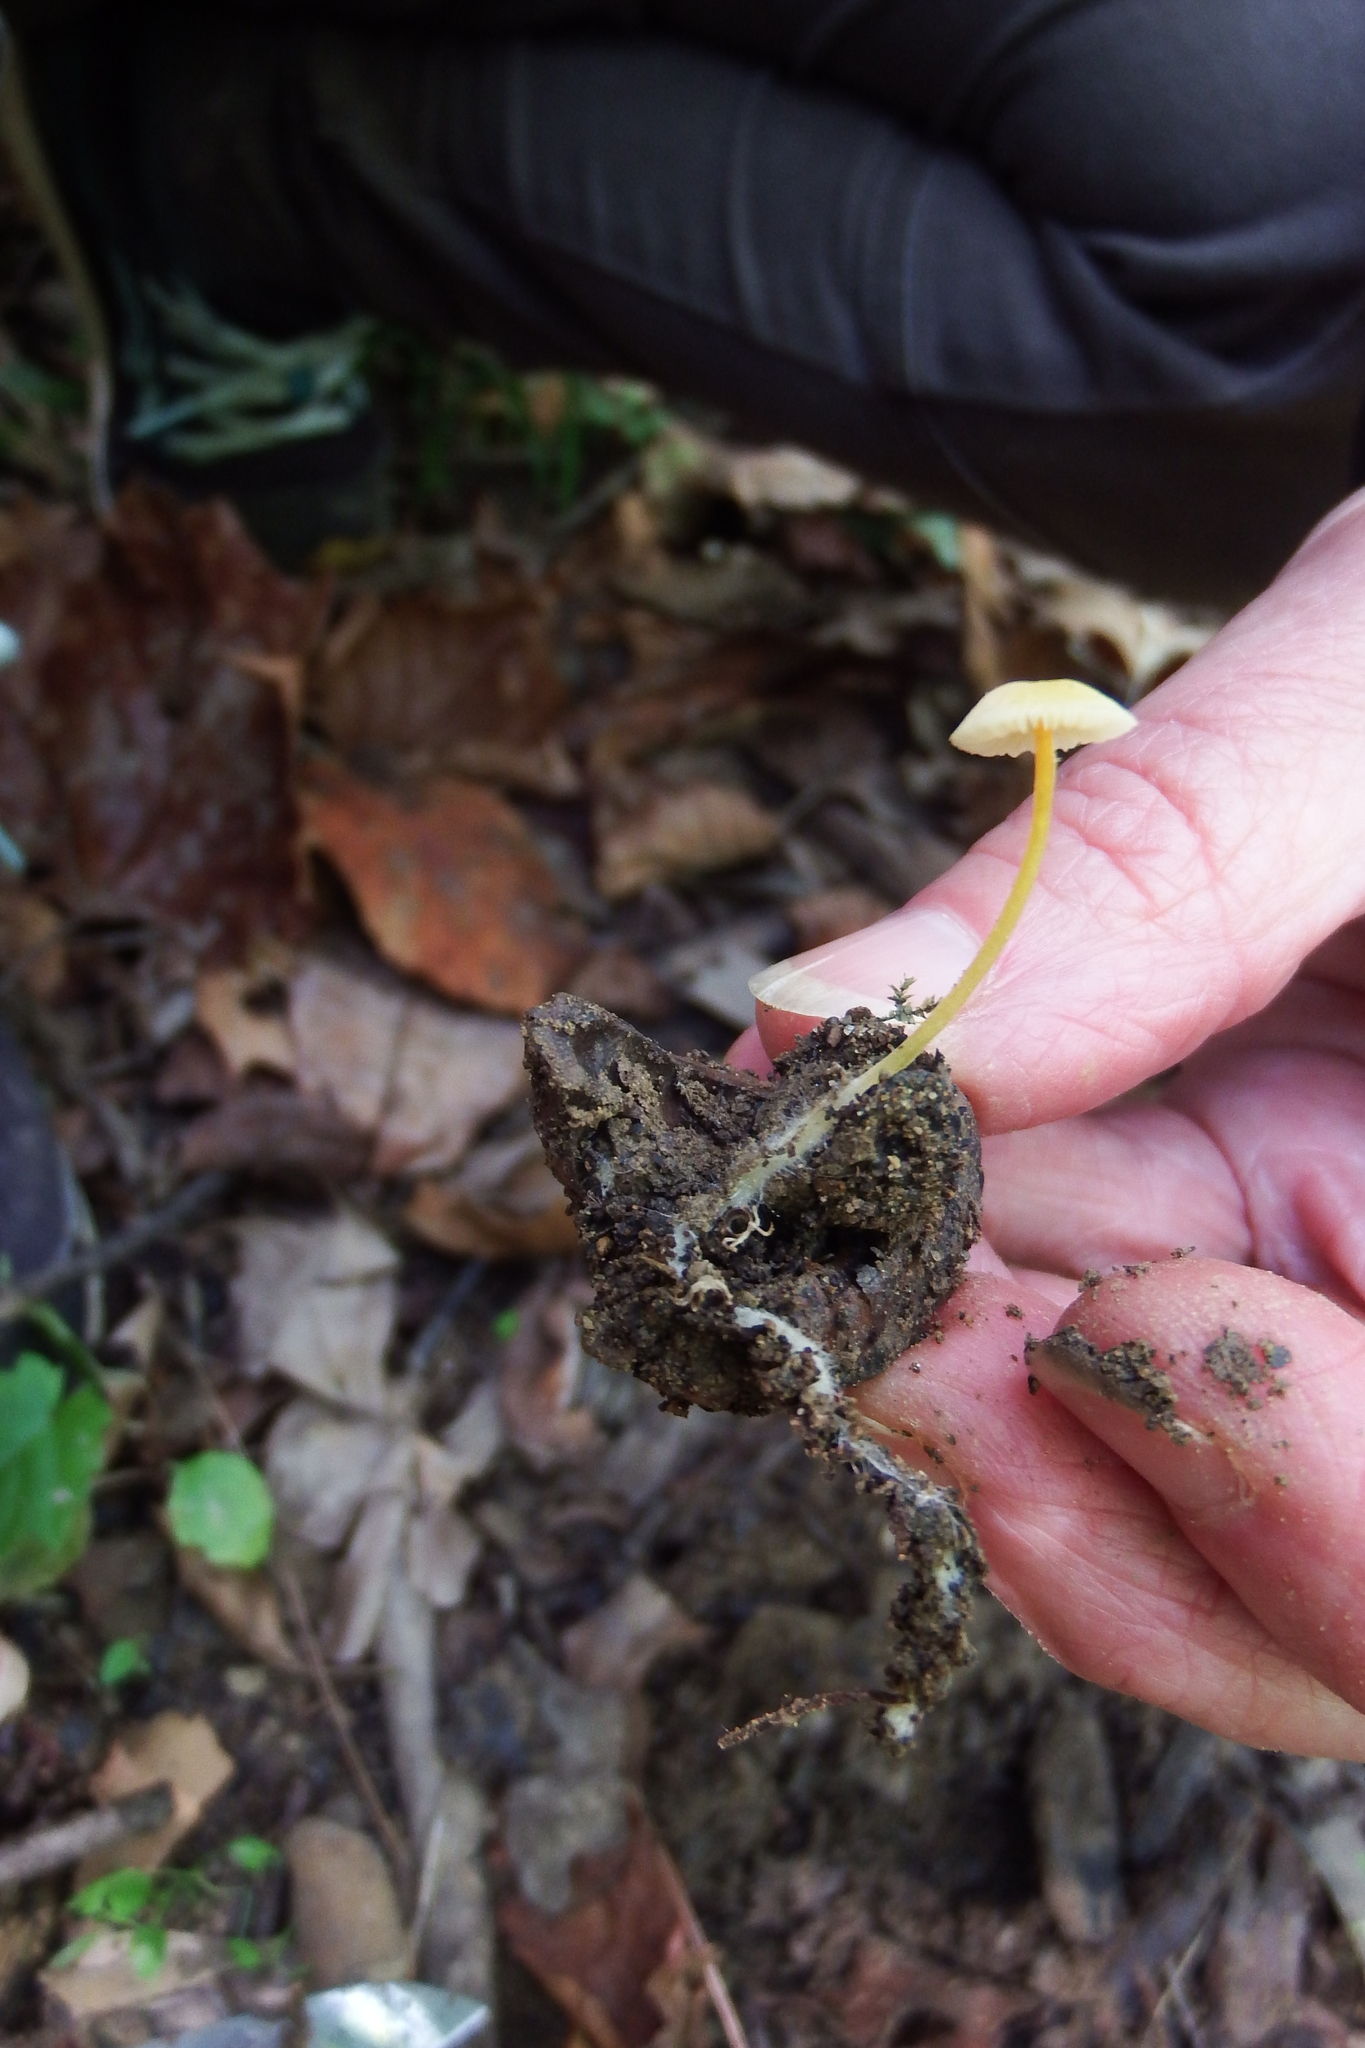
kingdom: Fungi
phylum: Basidiomycota
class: Agaricomycetes
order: Agaricales
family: Mycenaceae
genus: Mycena
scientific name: Mycena crocea
